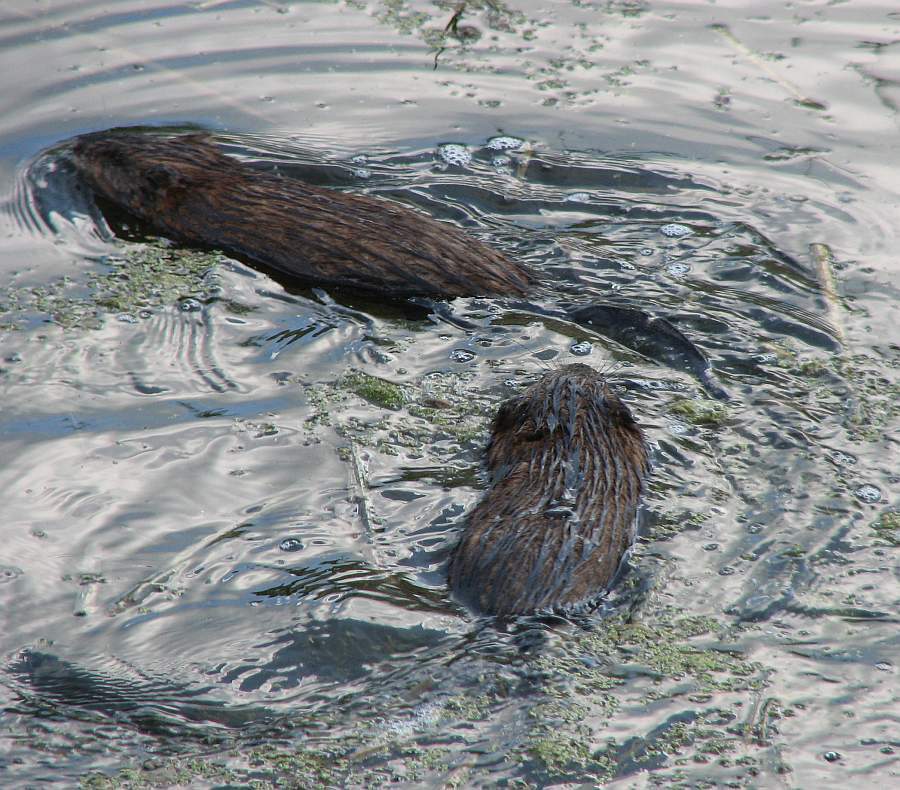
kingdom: Animalia
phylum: Chordata
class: Mammalia
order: Rodentia
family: Cricetidae
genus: Ondatra
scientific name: Ondatra zibethicus
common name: Muskrat
